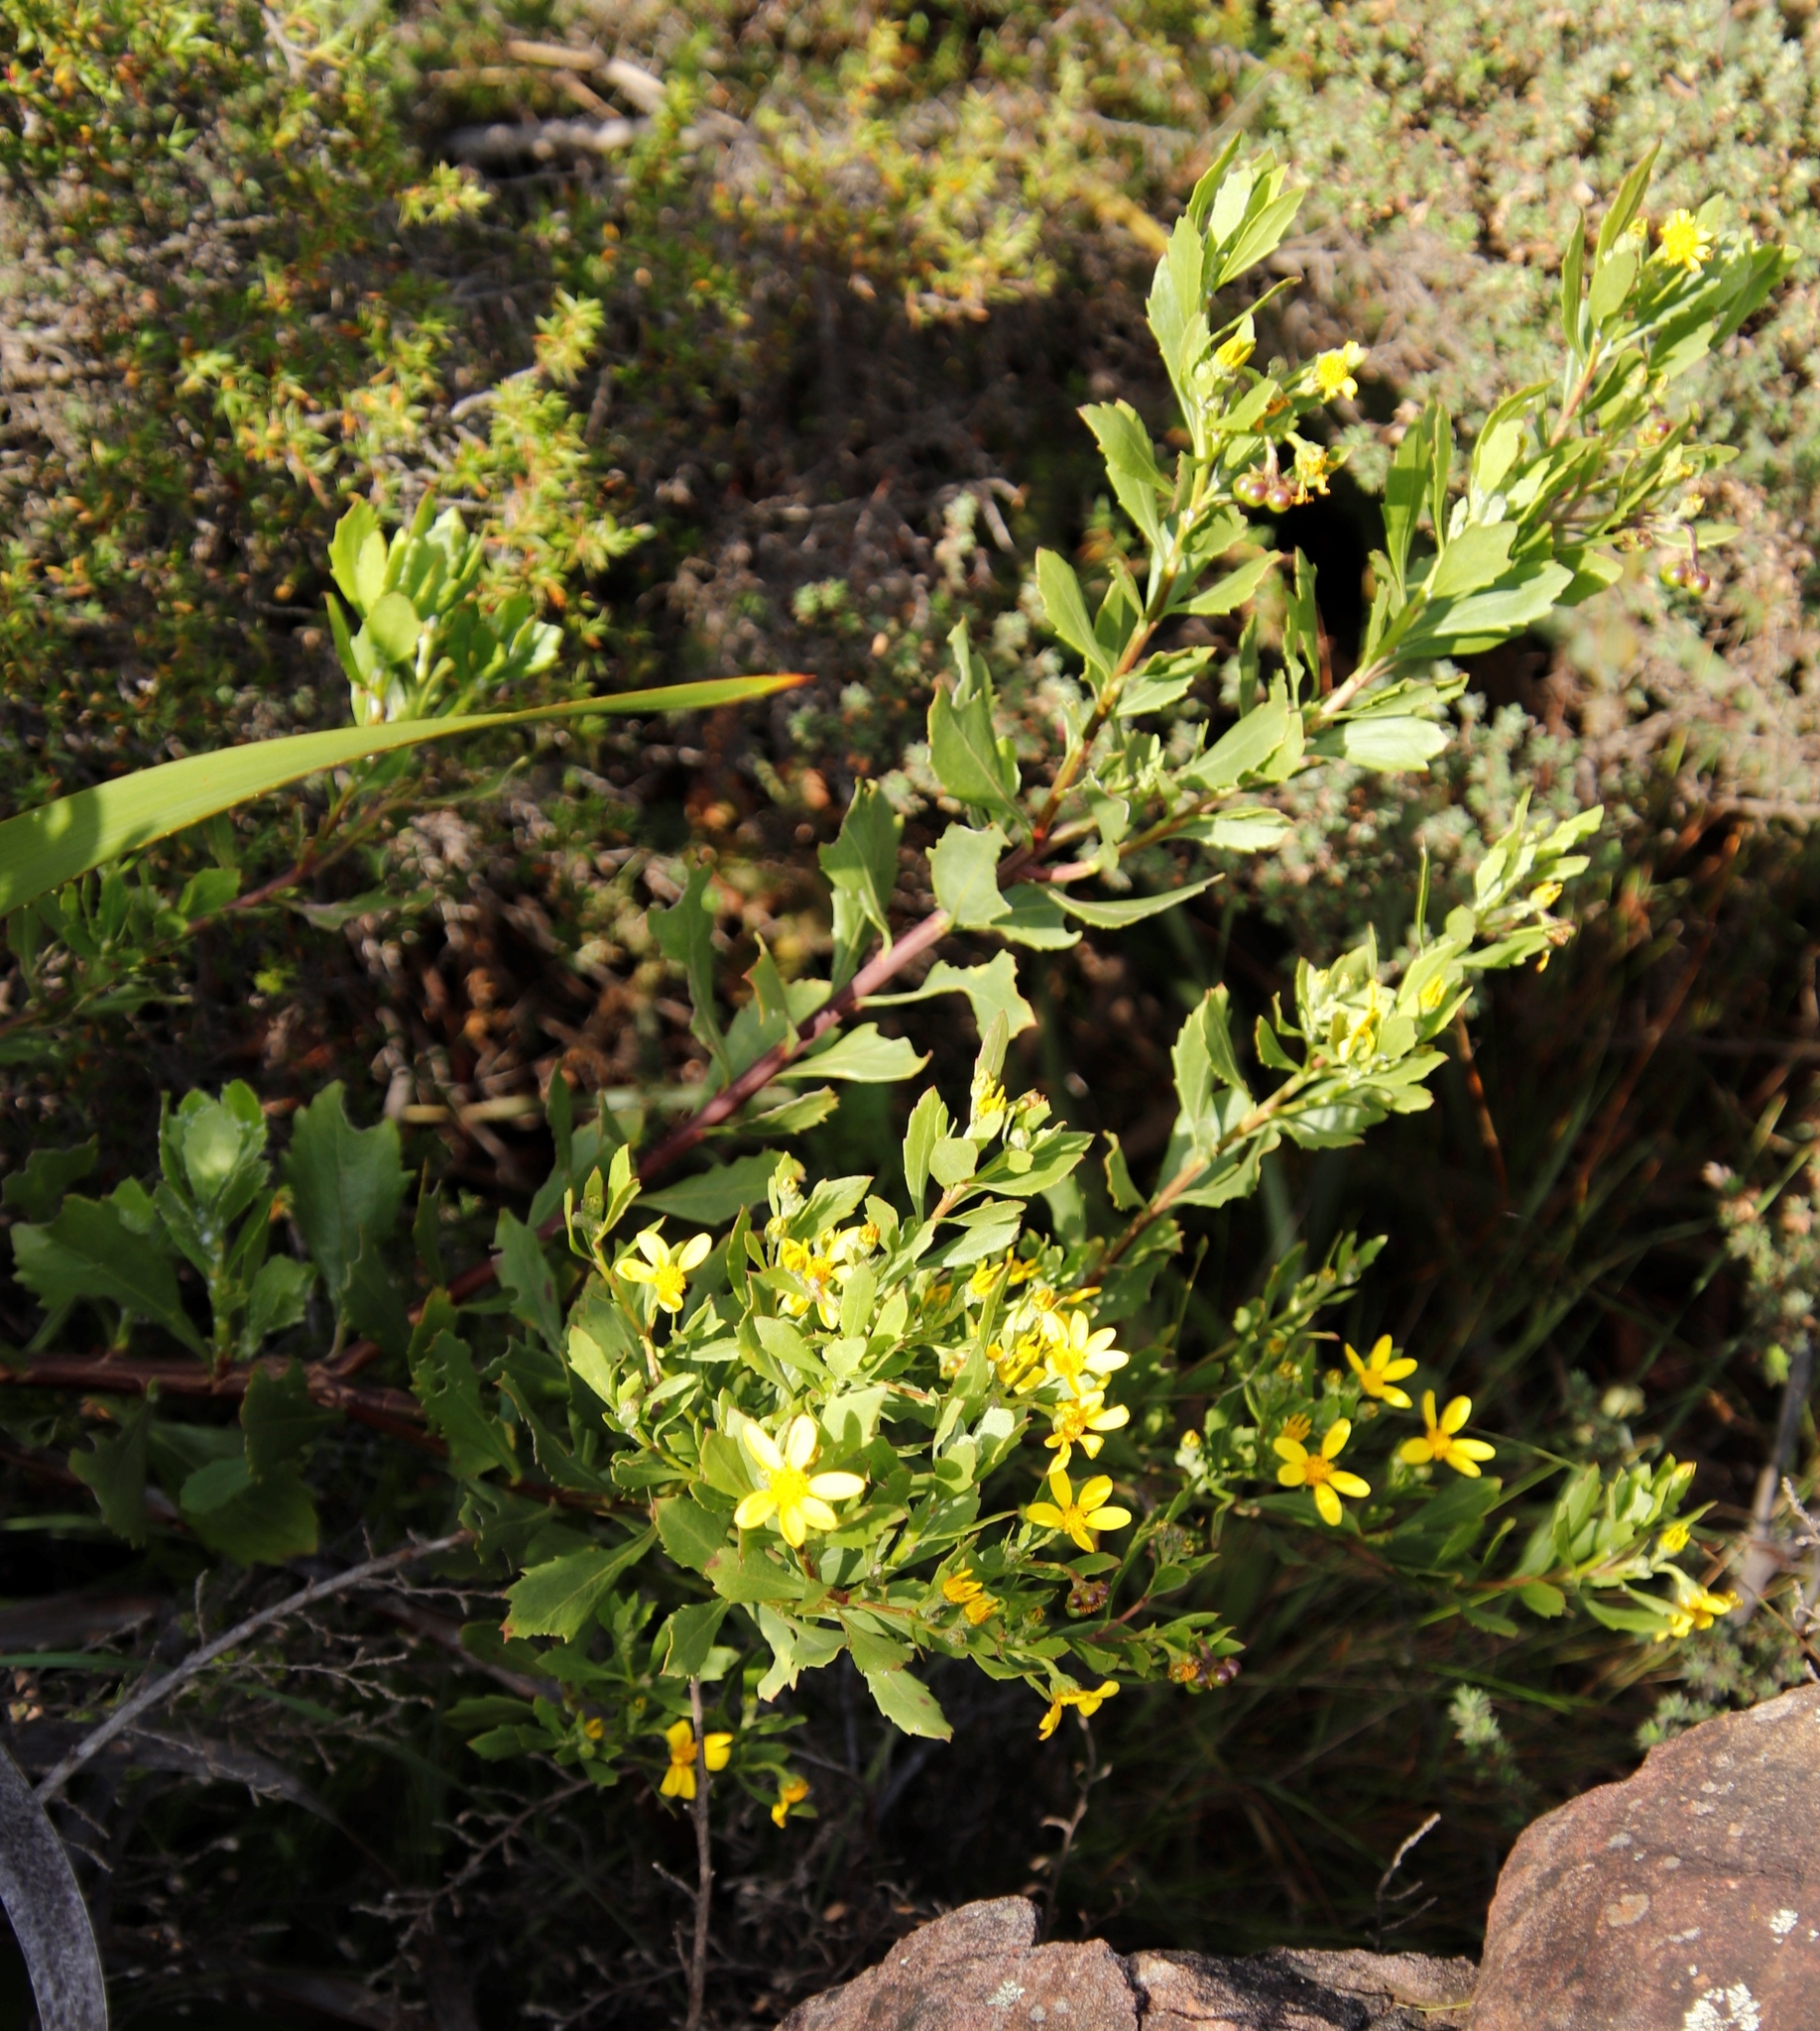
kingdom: Plantae
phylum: Tracheophyta
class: Magnoliopsida
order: Asterales
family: Asteraceae
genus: Osteospermum
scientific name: Osteospermum moniliferum
